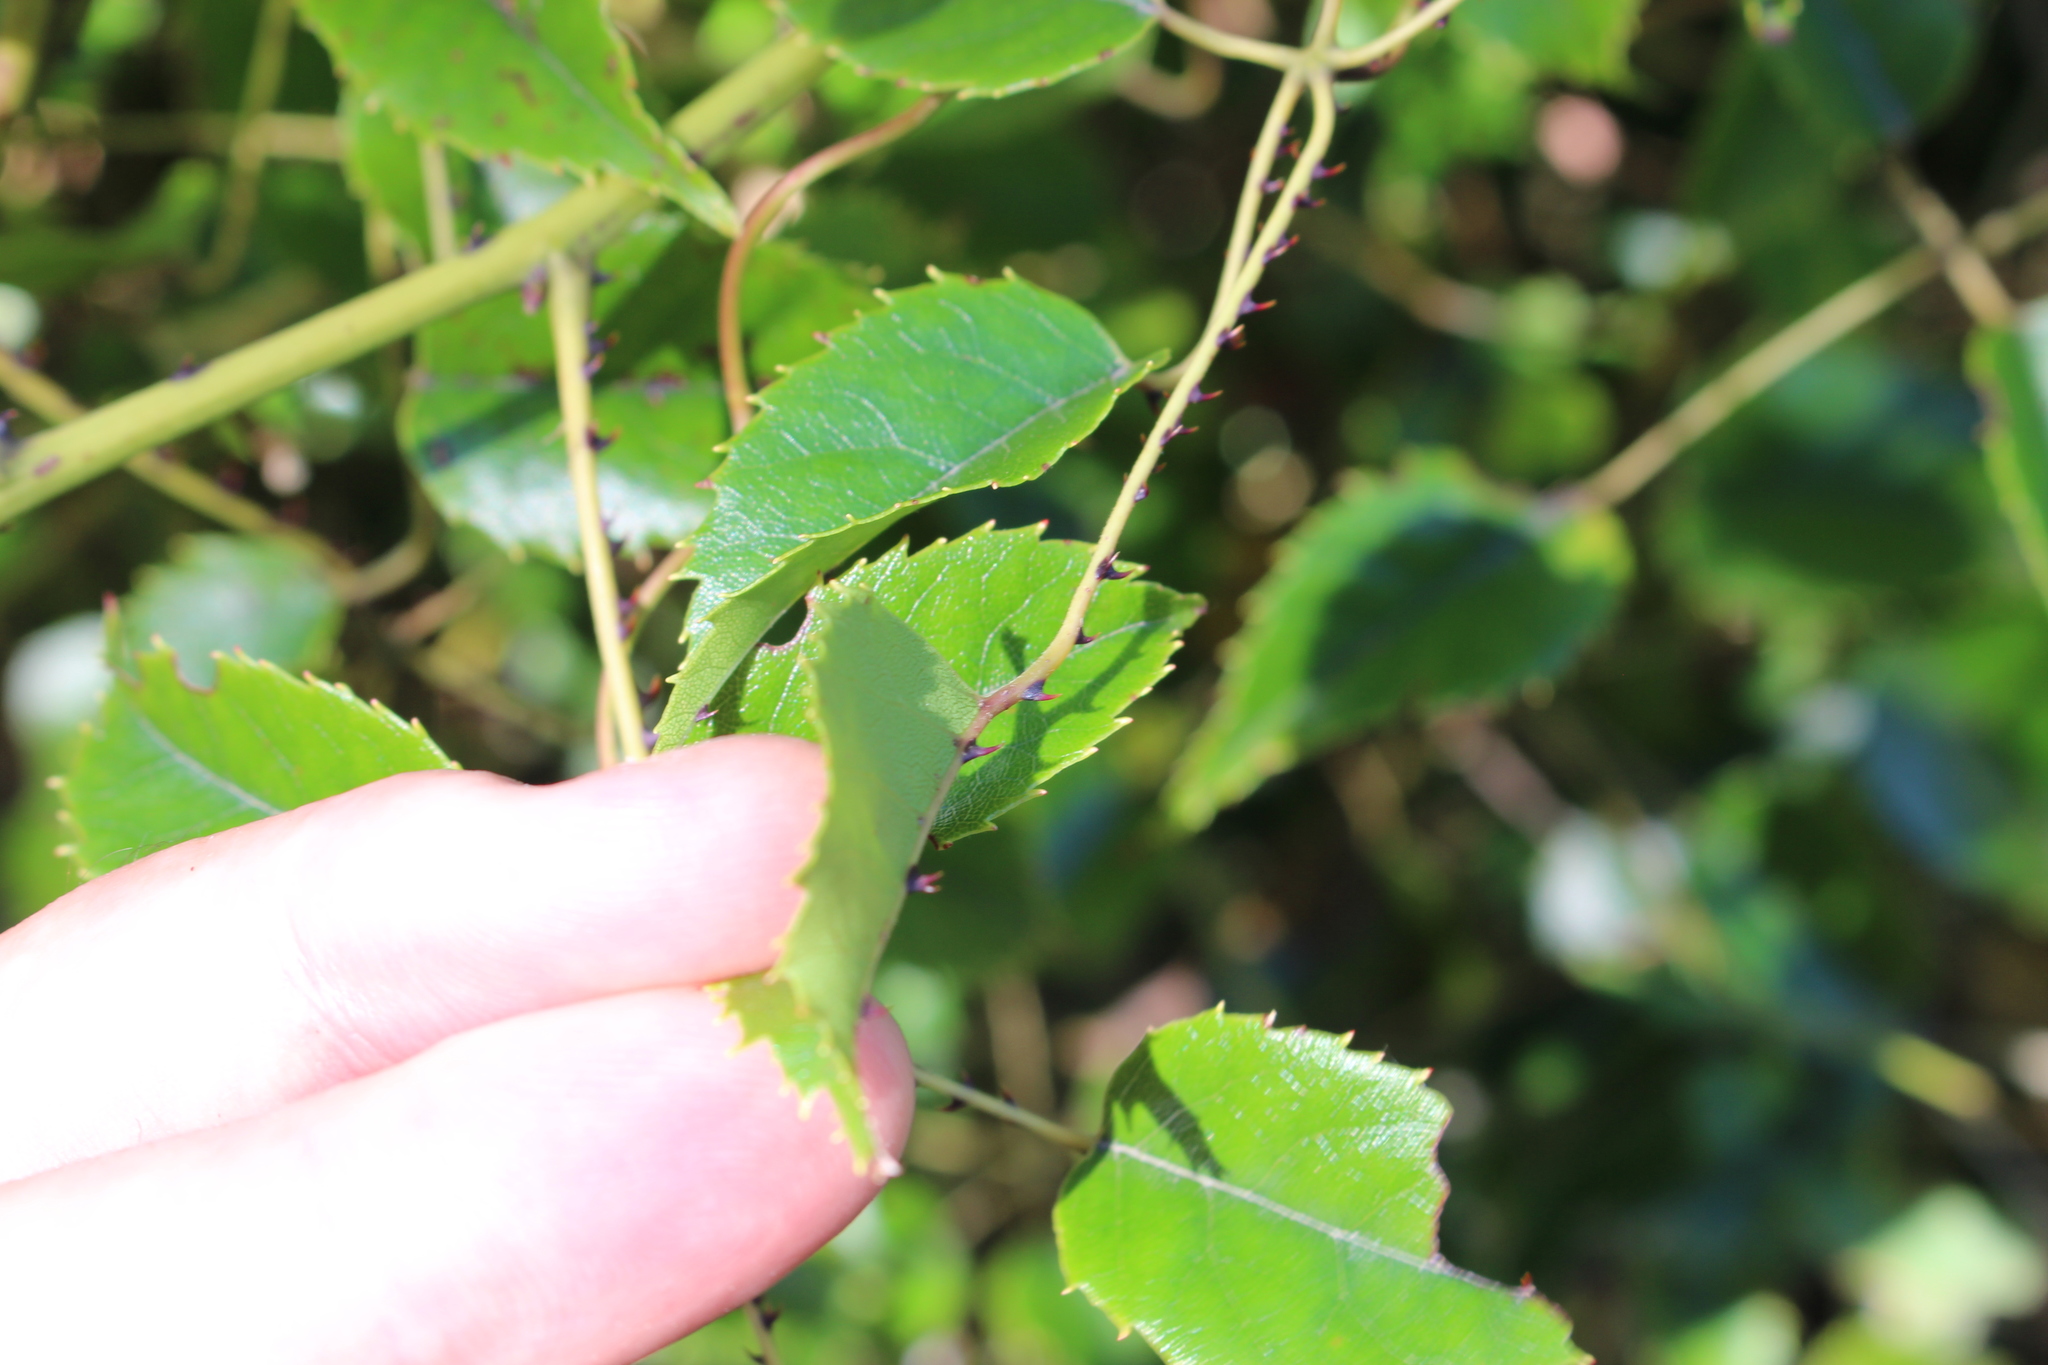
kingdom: Plantae
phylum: Tracheophyta
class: Magnoliopsida
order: Rosales
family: Rosaceae
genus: Rubus
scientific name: Rubus cissoides
